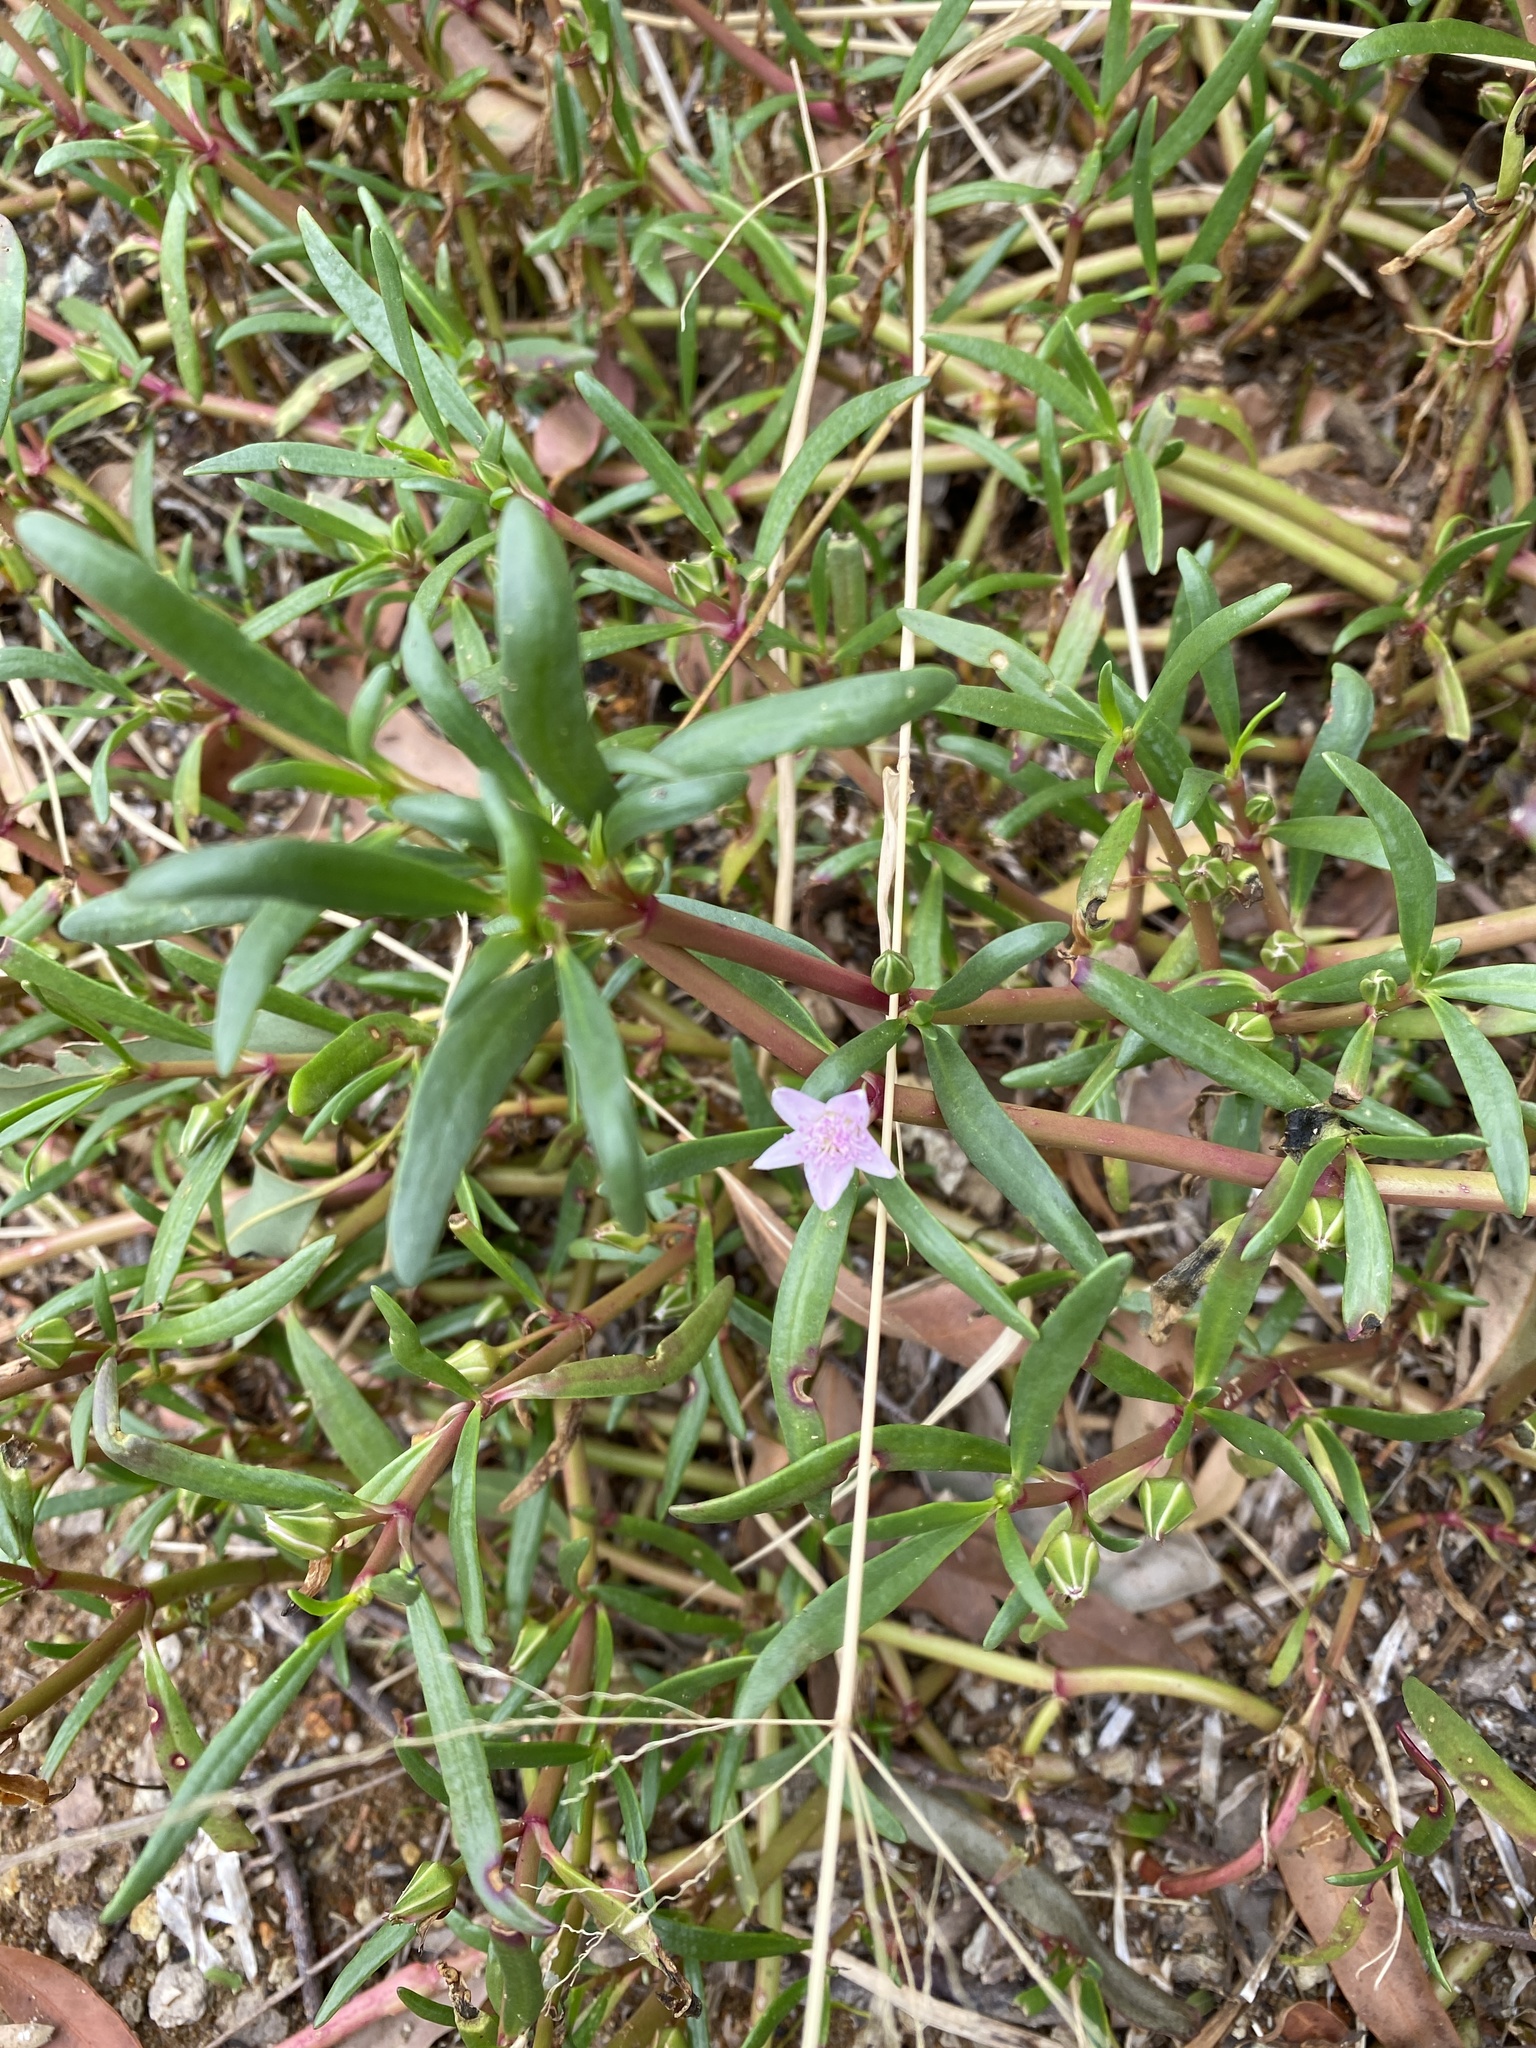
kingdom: Plantae
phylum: Tracheophyta
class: Magnoliopsida
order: Caryophyllales
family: Aizoaceae
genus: Sesuvium
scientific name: Sesuvium portulacastrum
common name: Sea-purslane
